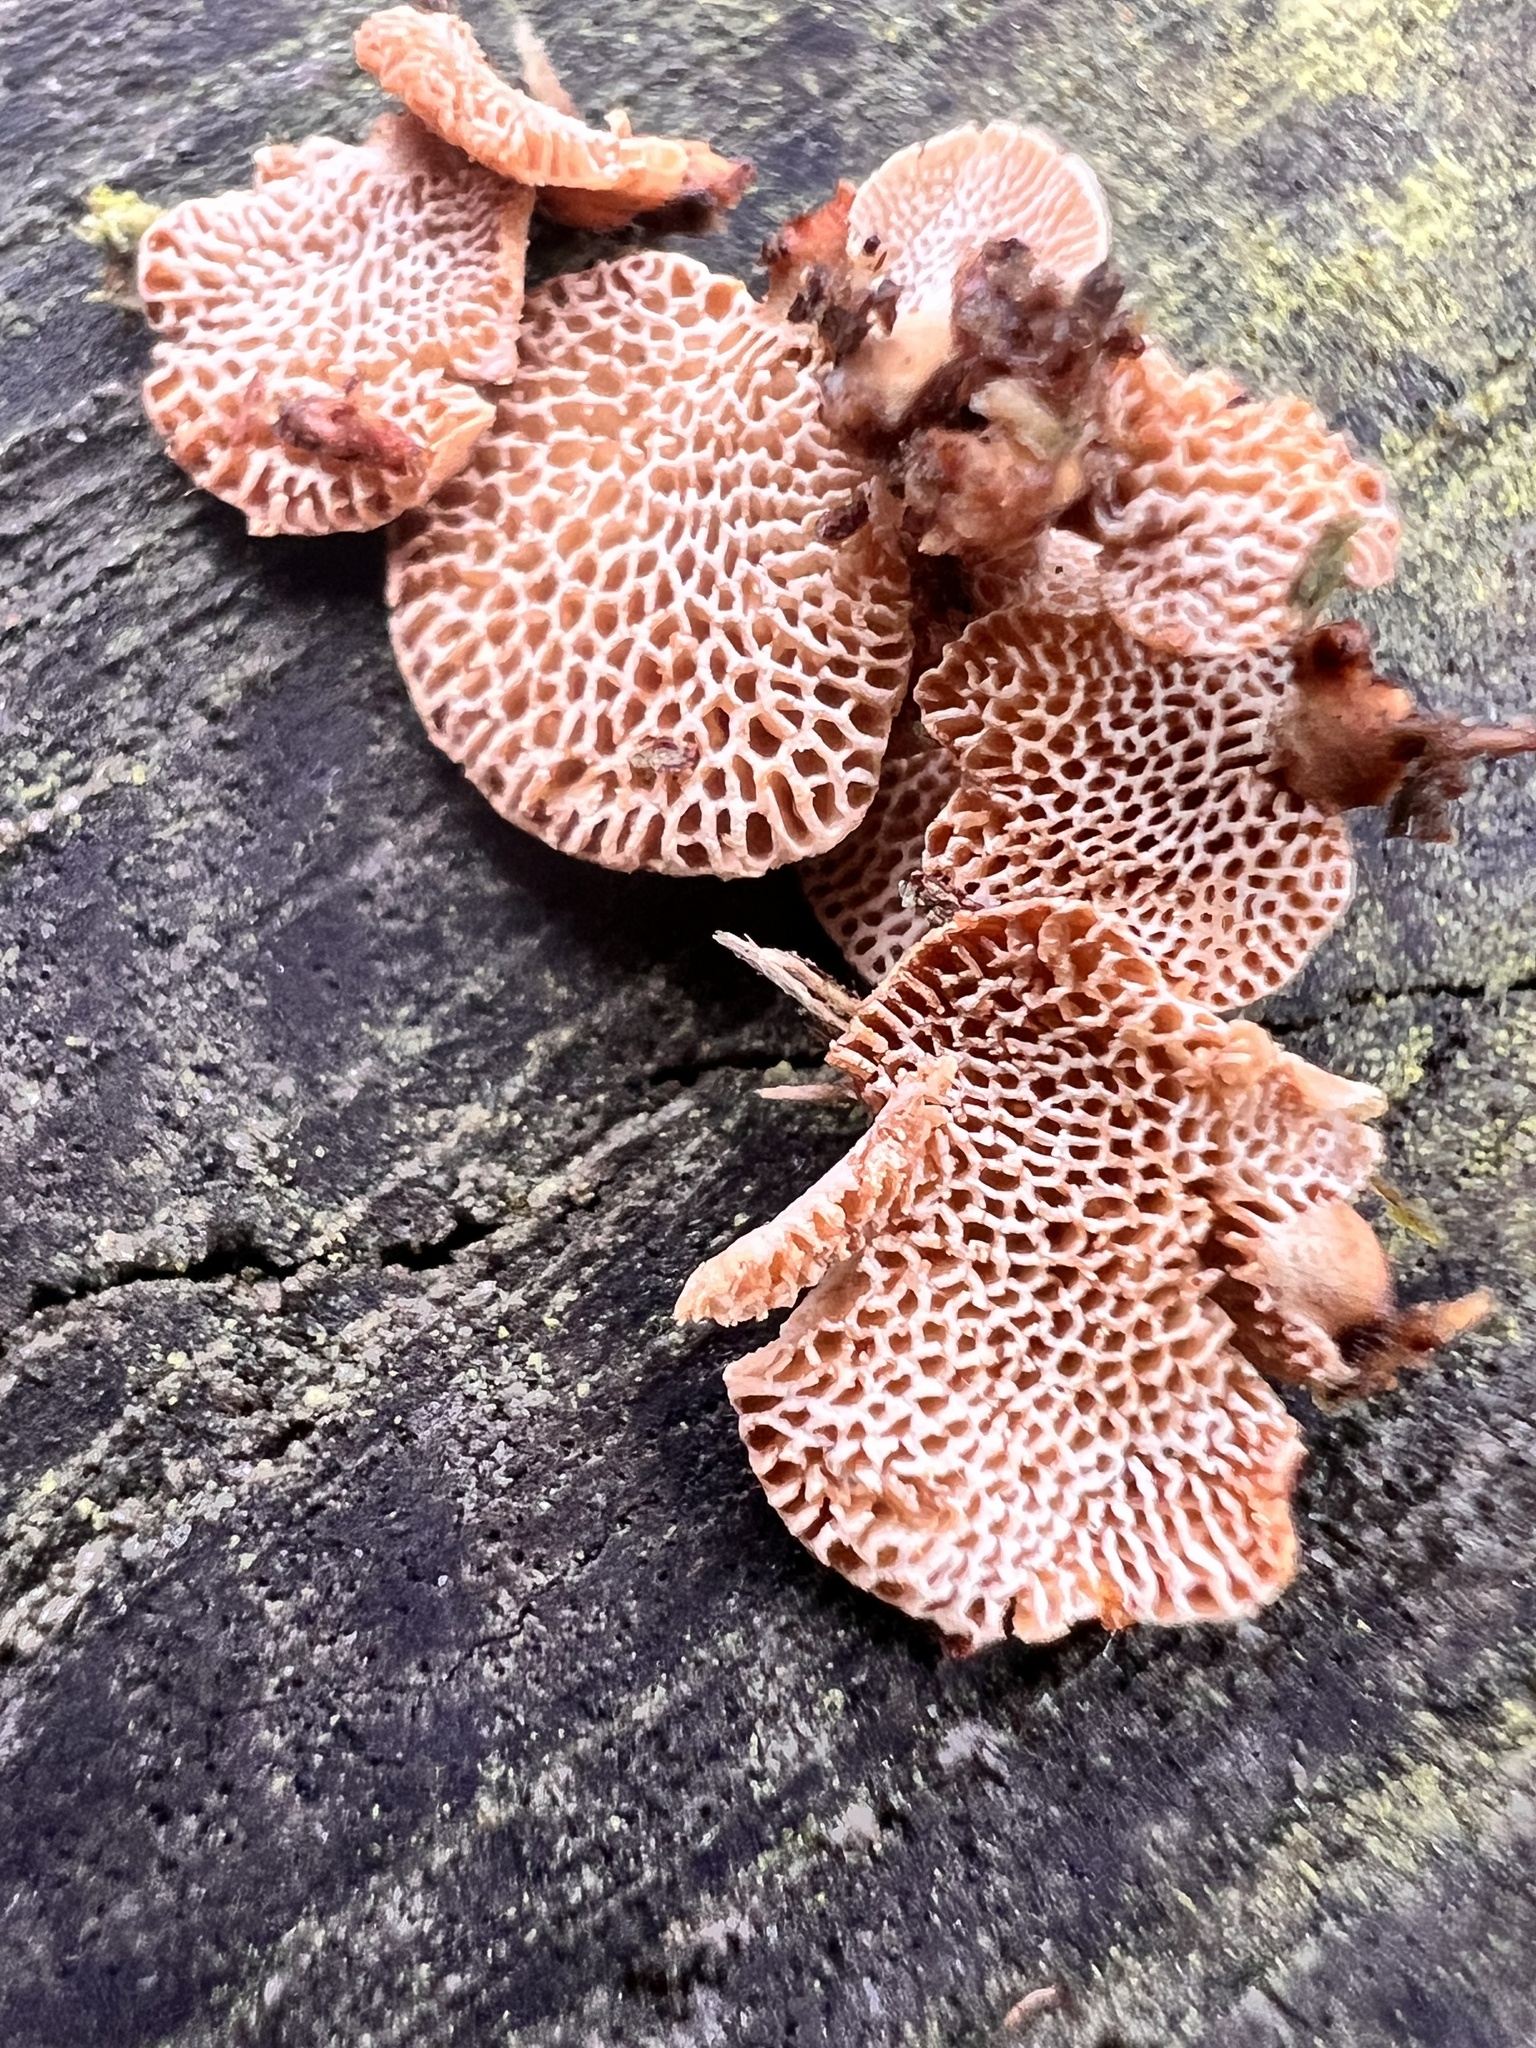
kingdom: Fungi
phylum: Basidiomycota
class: Agaricomycetes
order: Agaricales
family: Mycenaceae
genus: Panellus
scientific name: Panellus luxfilamentus
